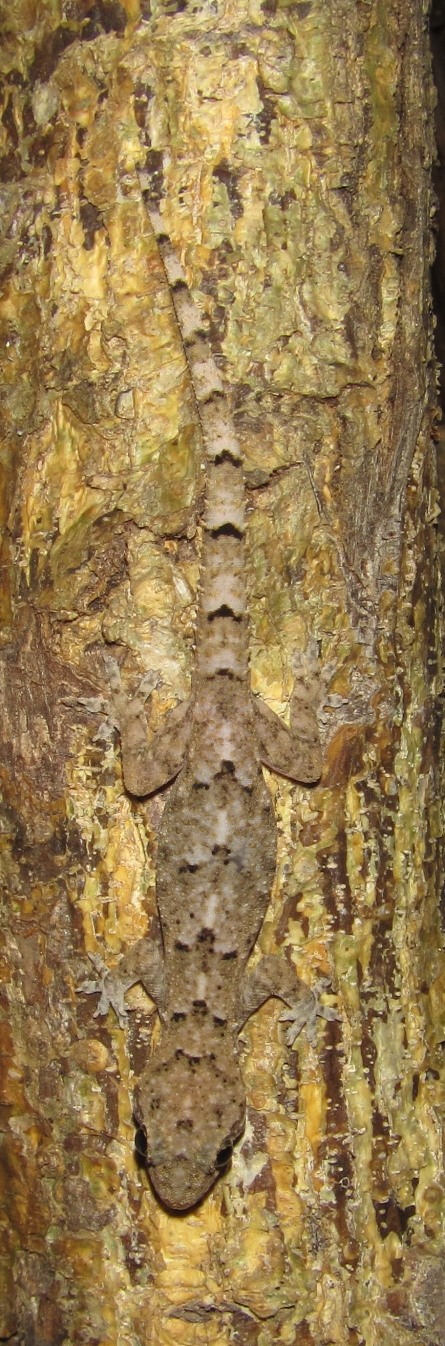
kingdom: Animalia
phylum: Chordata
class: Squamata
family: Gekkonidae
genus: Hemidactylus
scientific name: Hemidactylus mabouia
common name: House gecko
